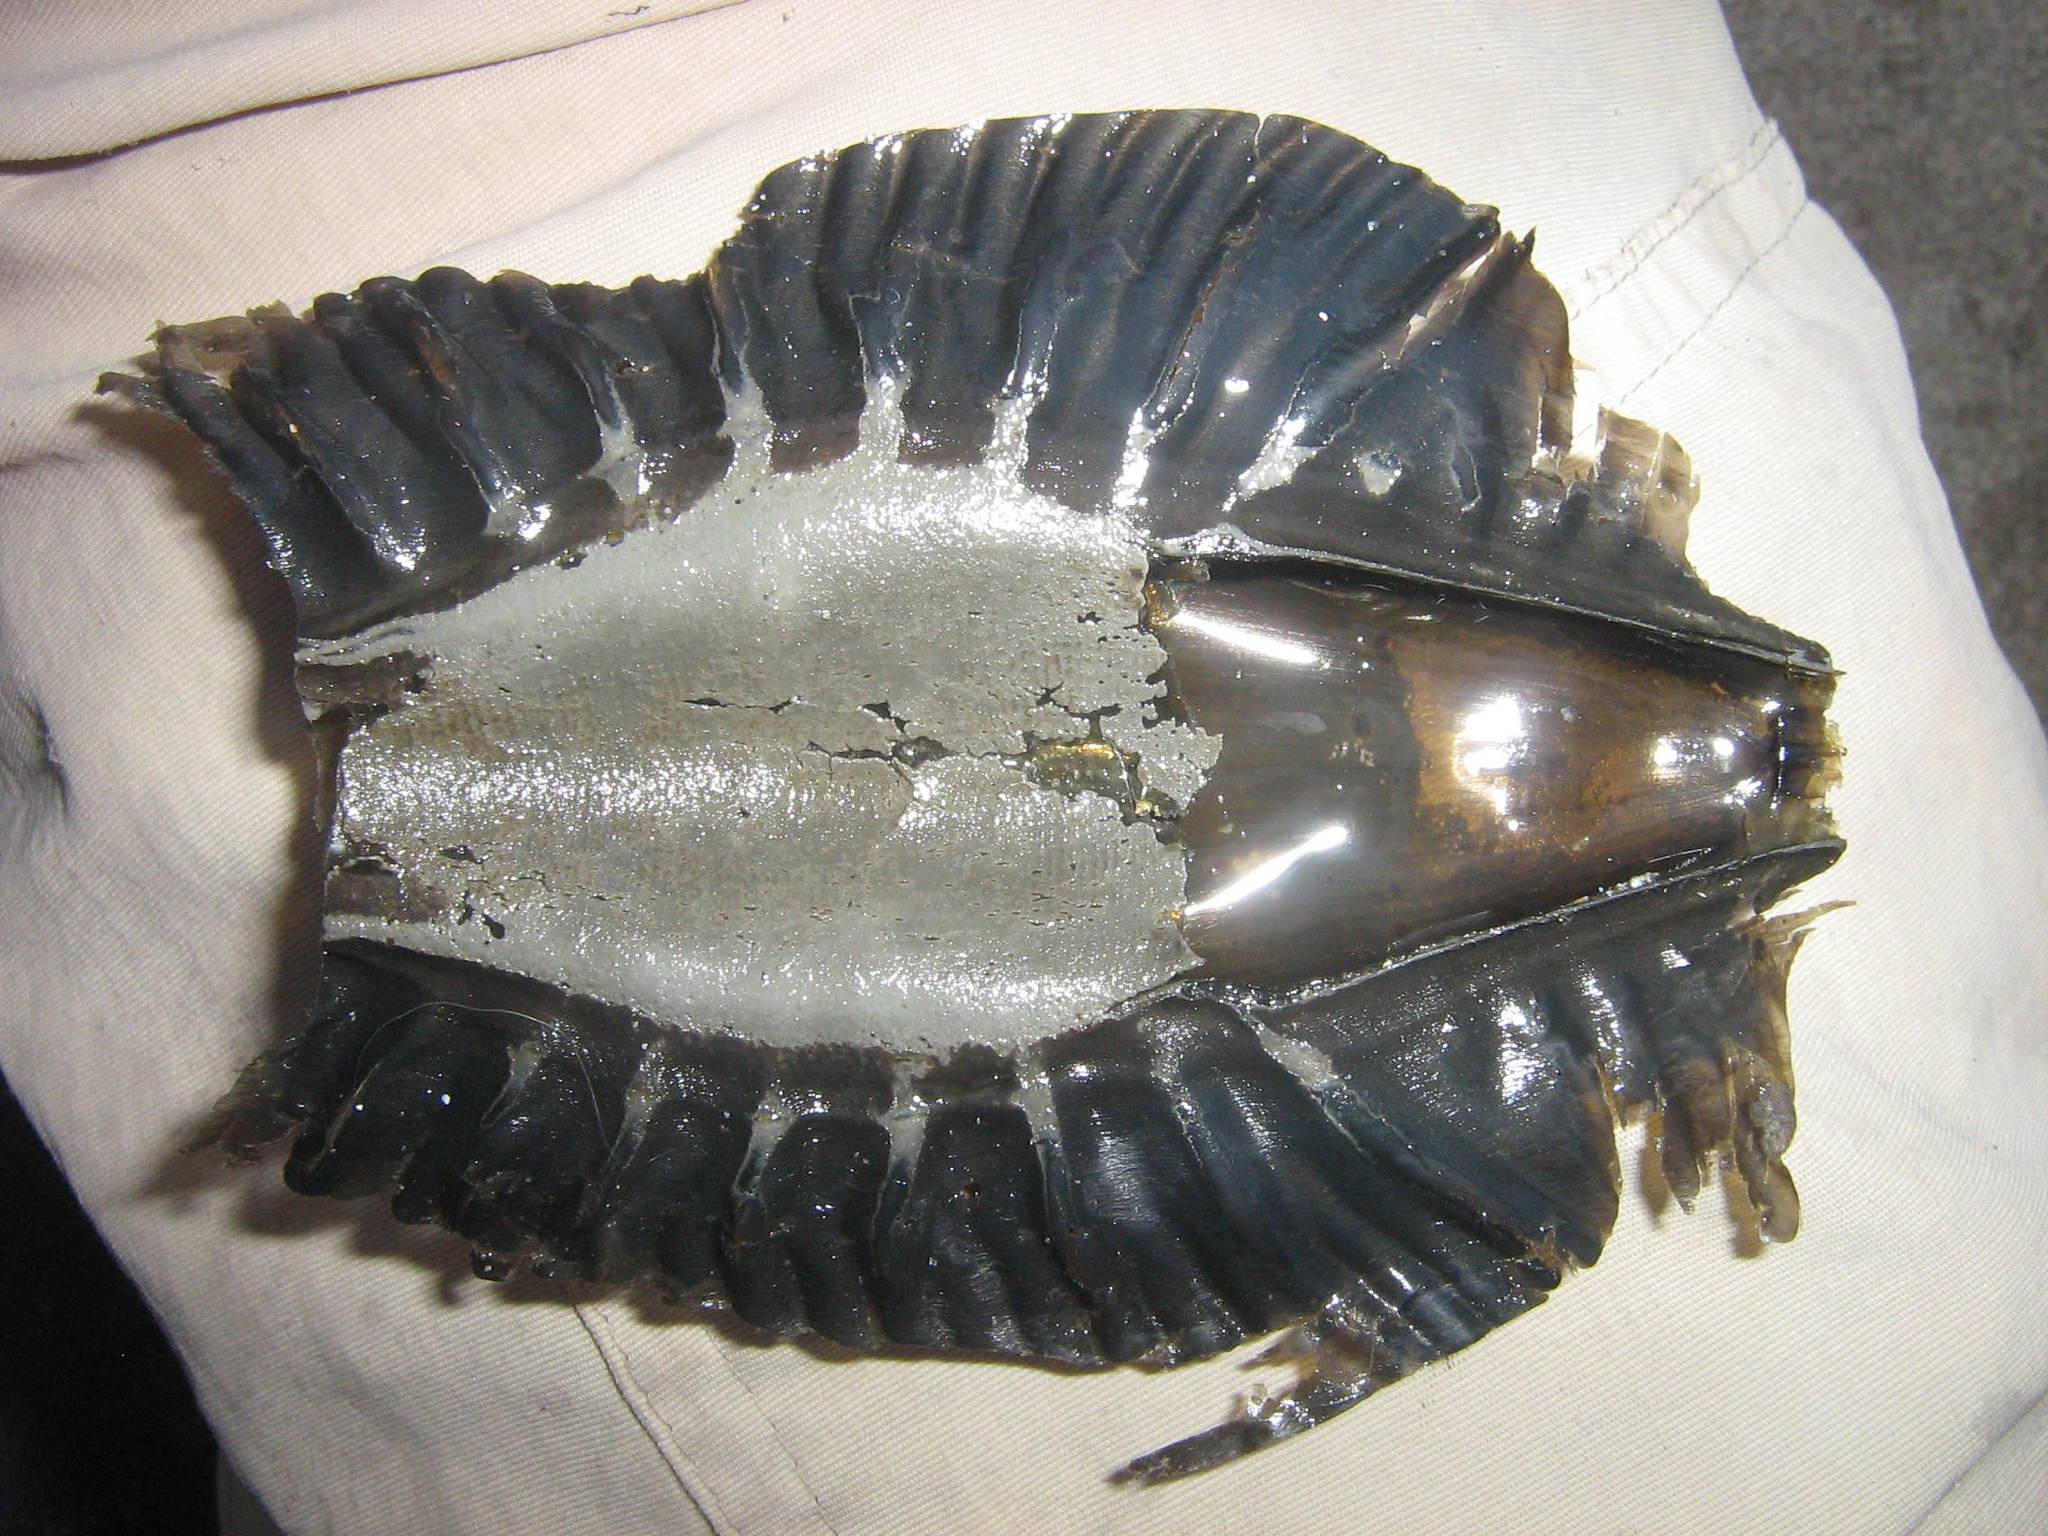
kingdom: Animalia
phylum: Chordata
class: Holocephali
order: Chimaeriformes
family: Callorhinchidae
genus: Callorhinchus
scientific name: Callorhinchus callorynchus
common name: Elephant fish
